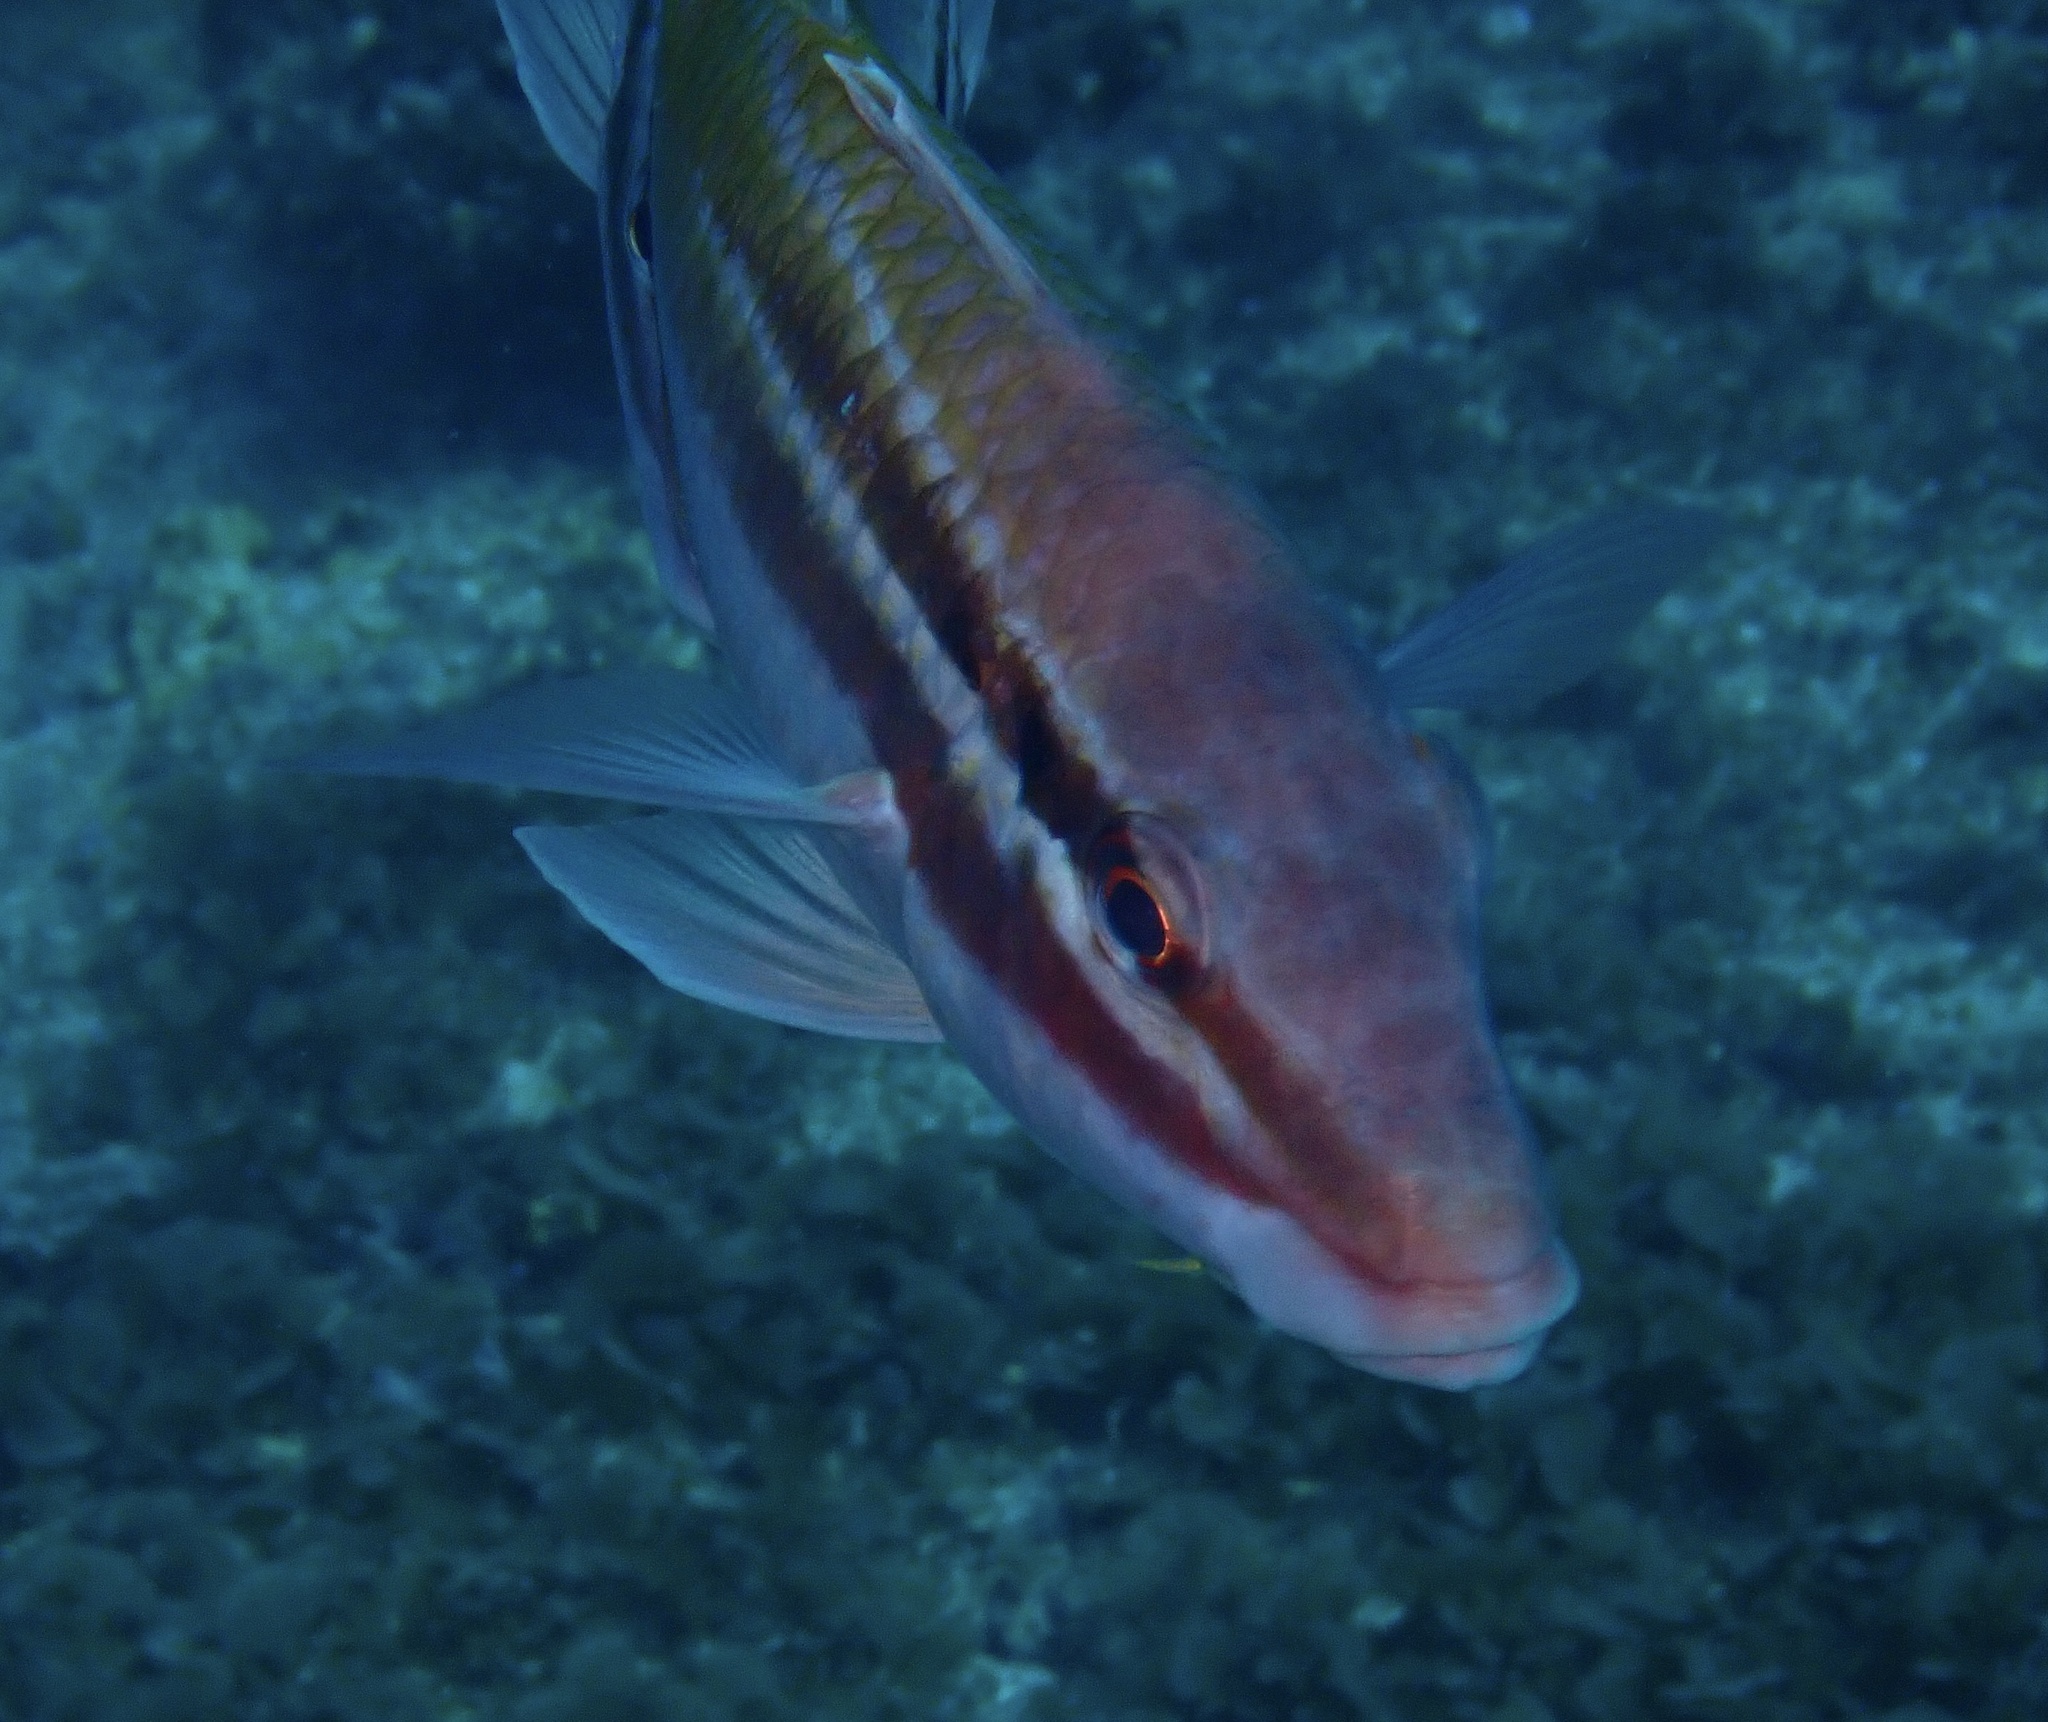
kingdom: Animalia
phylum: Chordata
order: Perciformes
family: Mullidae
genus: Parupeneus
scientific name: Parupeneus spilurus
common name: Blackspot goatfish
